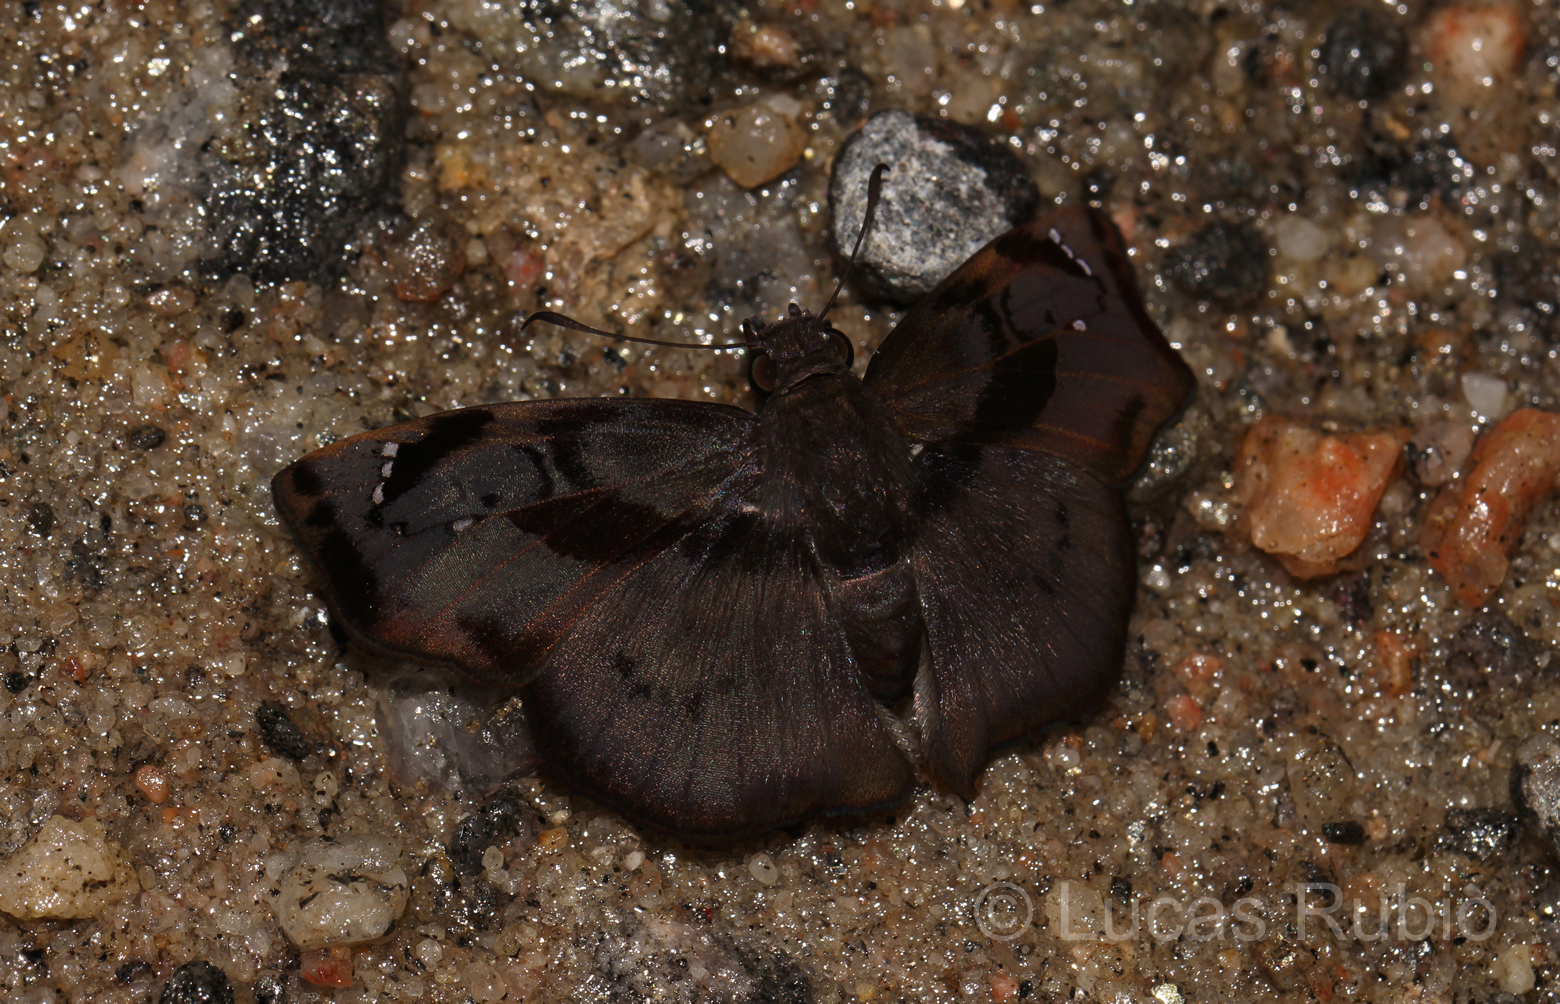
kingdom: Animalia
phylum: Arthropoda
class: Insecta
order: Lepidoptera
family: Hesperiidae
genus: Zera
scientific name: Zera hyacinthinus
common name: Bruised skipper
